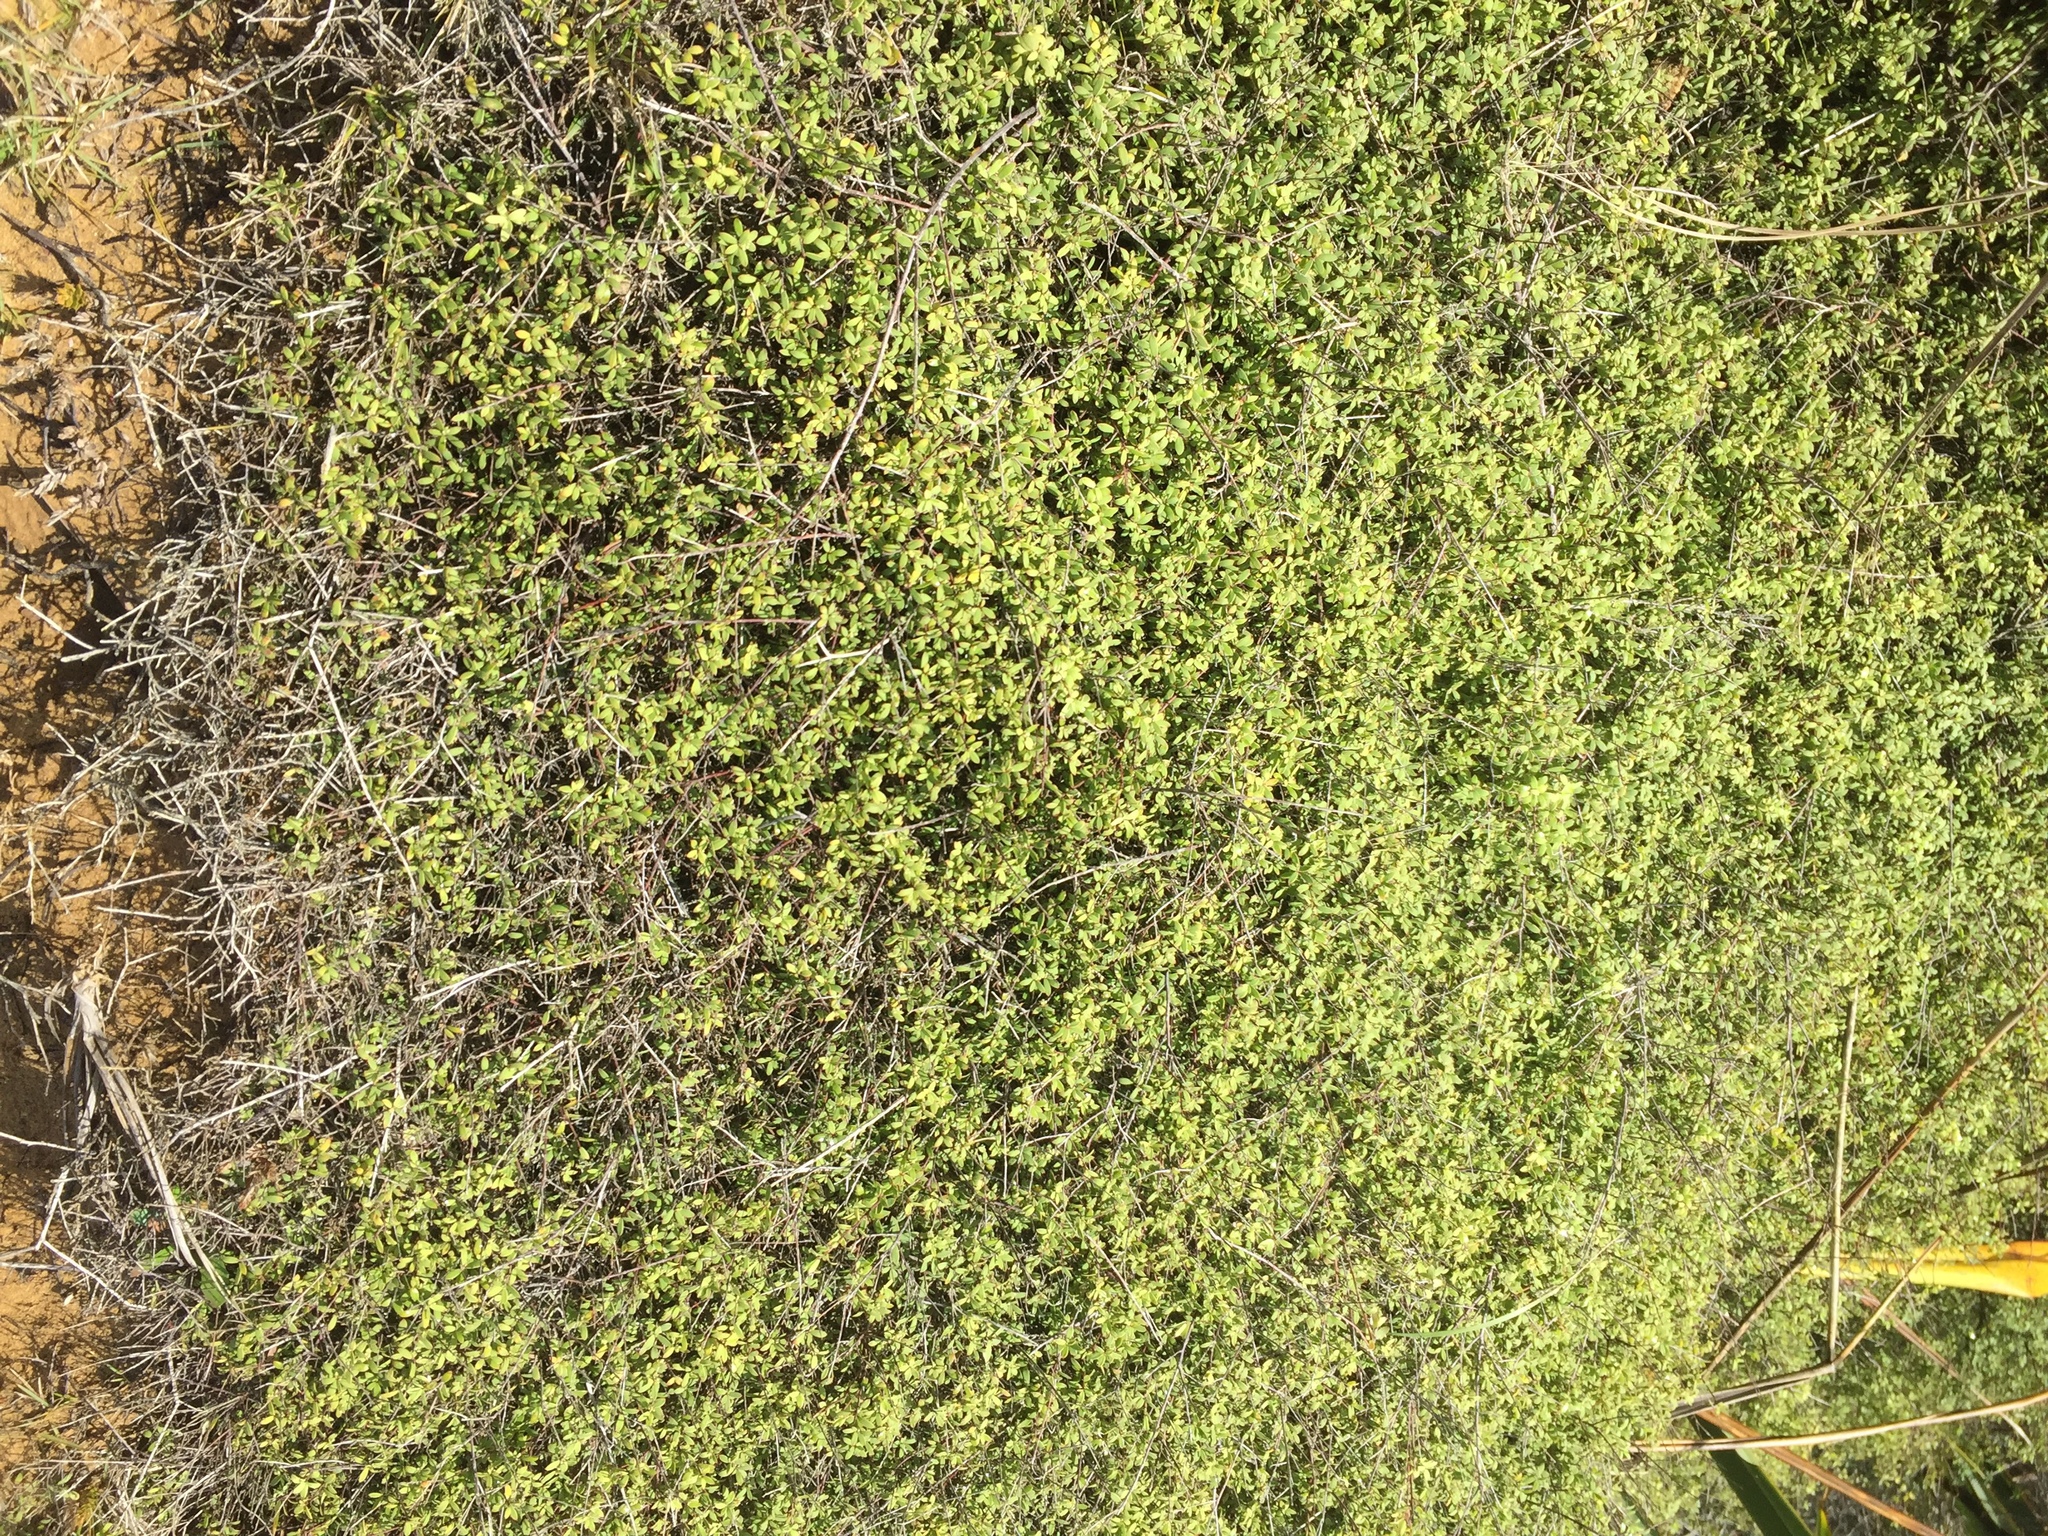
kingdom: Plantae
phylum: Tracheophyta
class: Magnoliopsida
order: Ericales
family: Ericaceae
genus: Leucopogon
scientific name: Leucopogon fasciculatus
